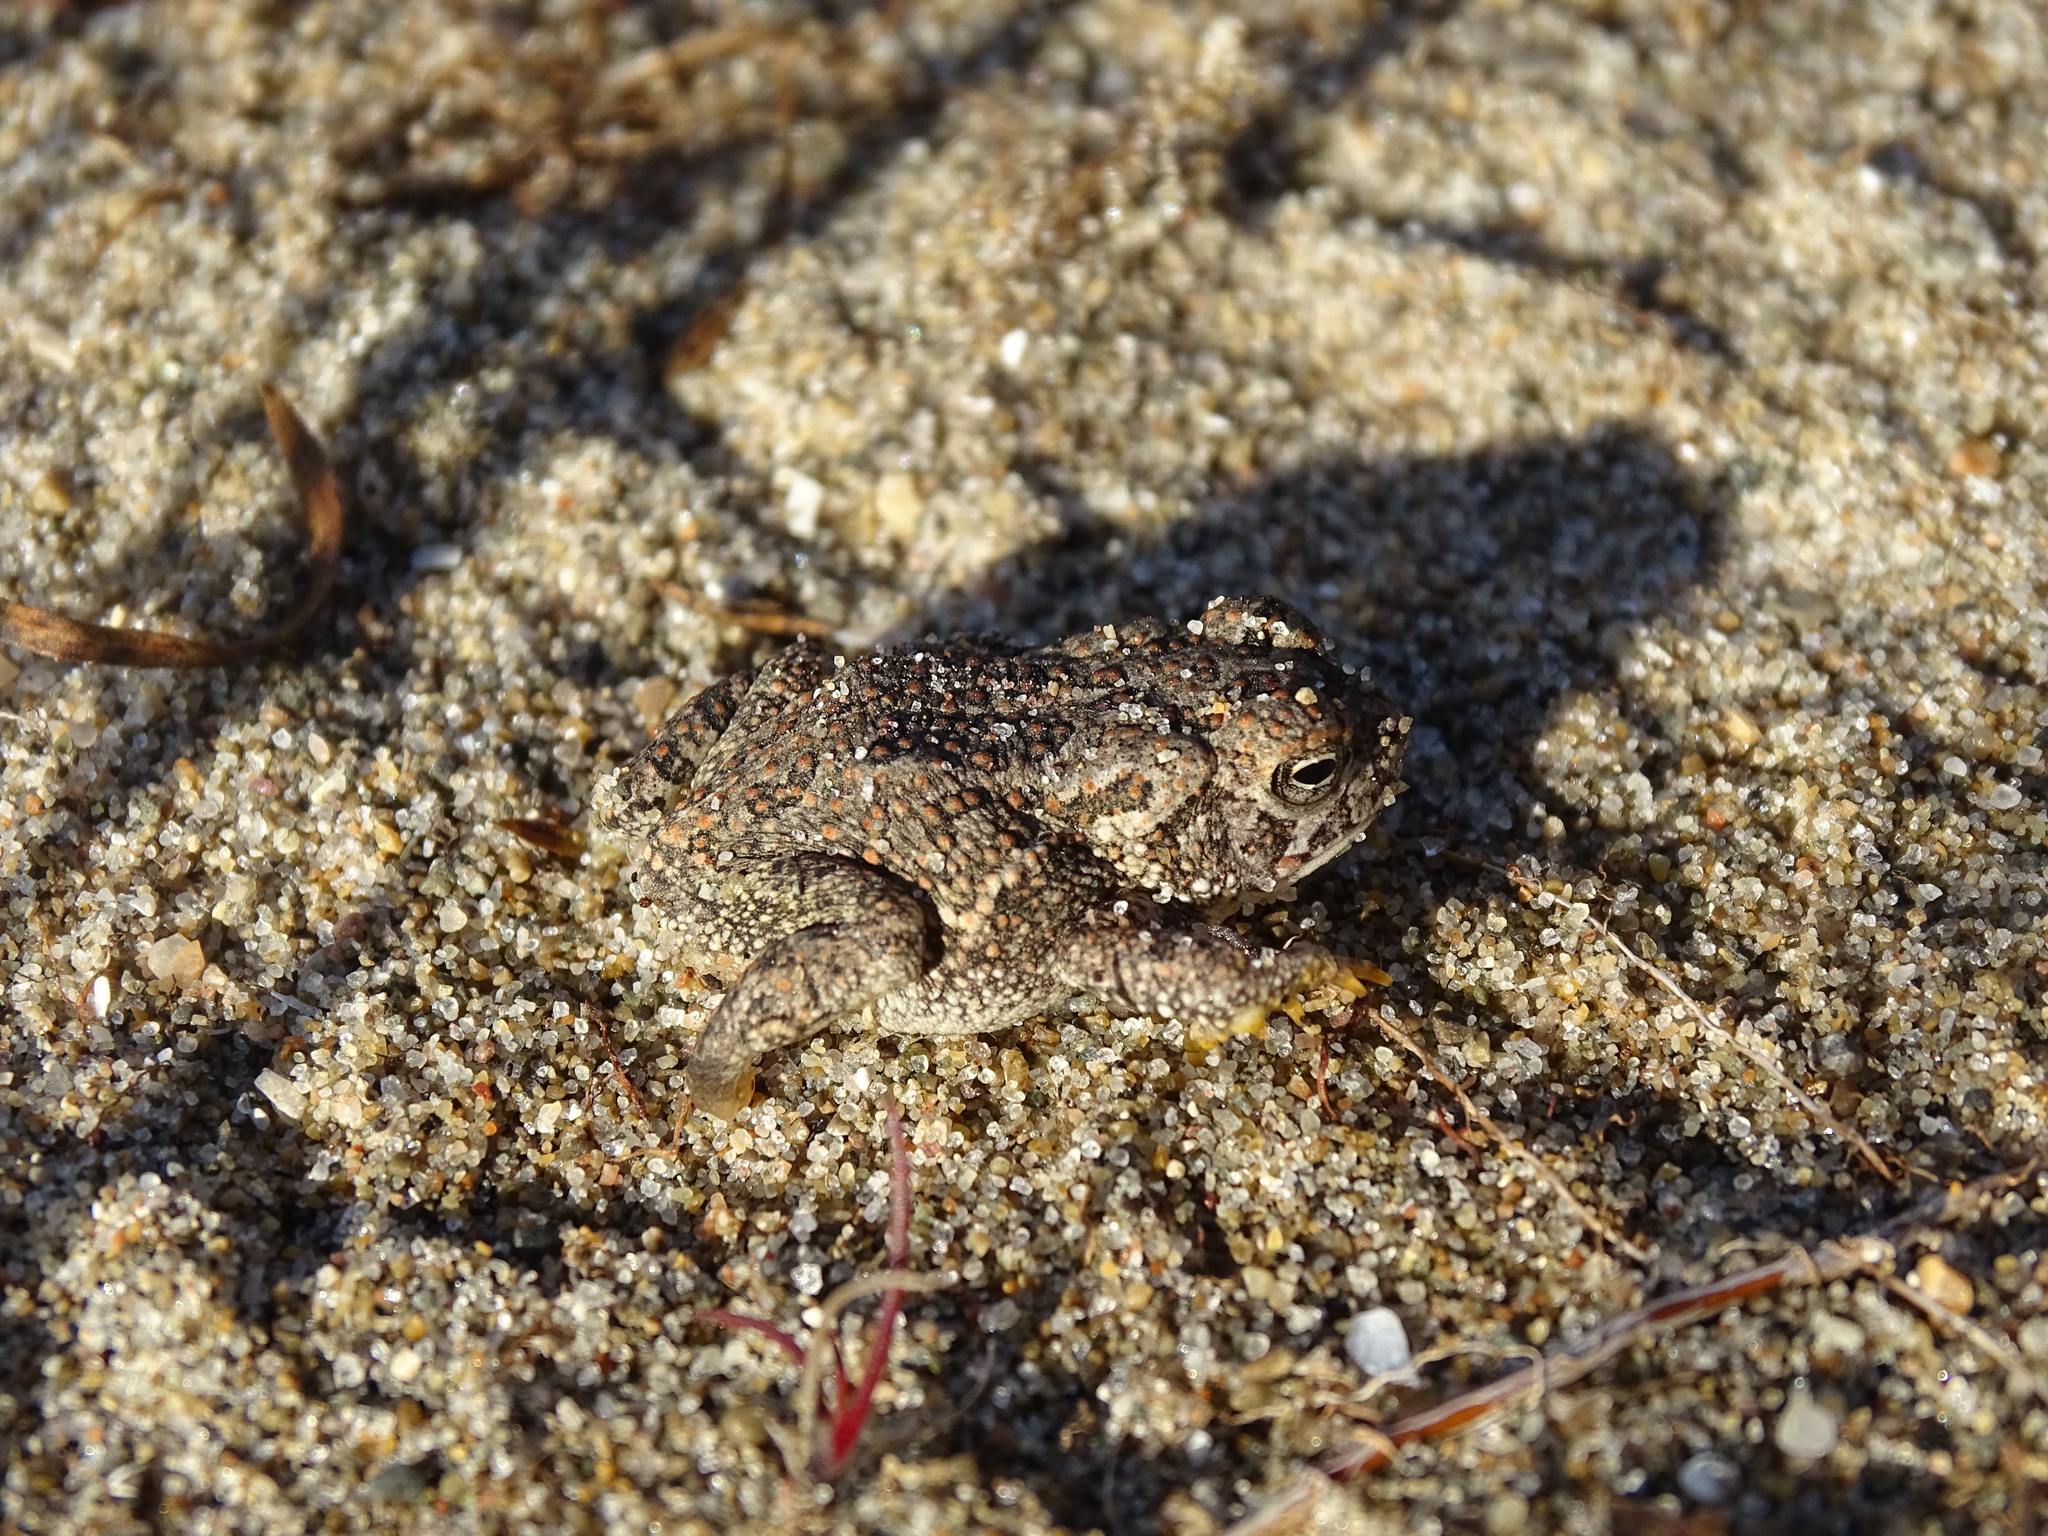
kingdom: Animalia
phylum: Chordata
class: Amphibia
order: Anura
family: Bufonidae
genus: Anaxyrus
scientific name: Anaxyrus fowleri
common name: Fowler's toad
